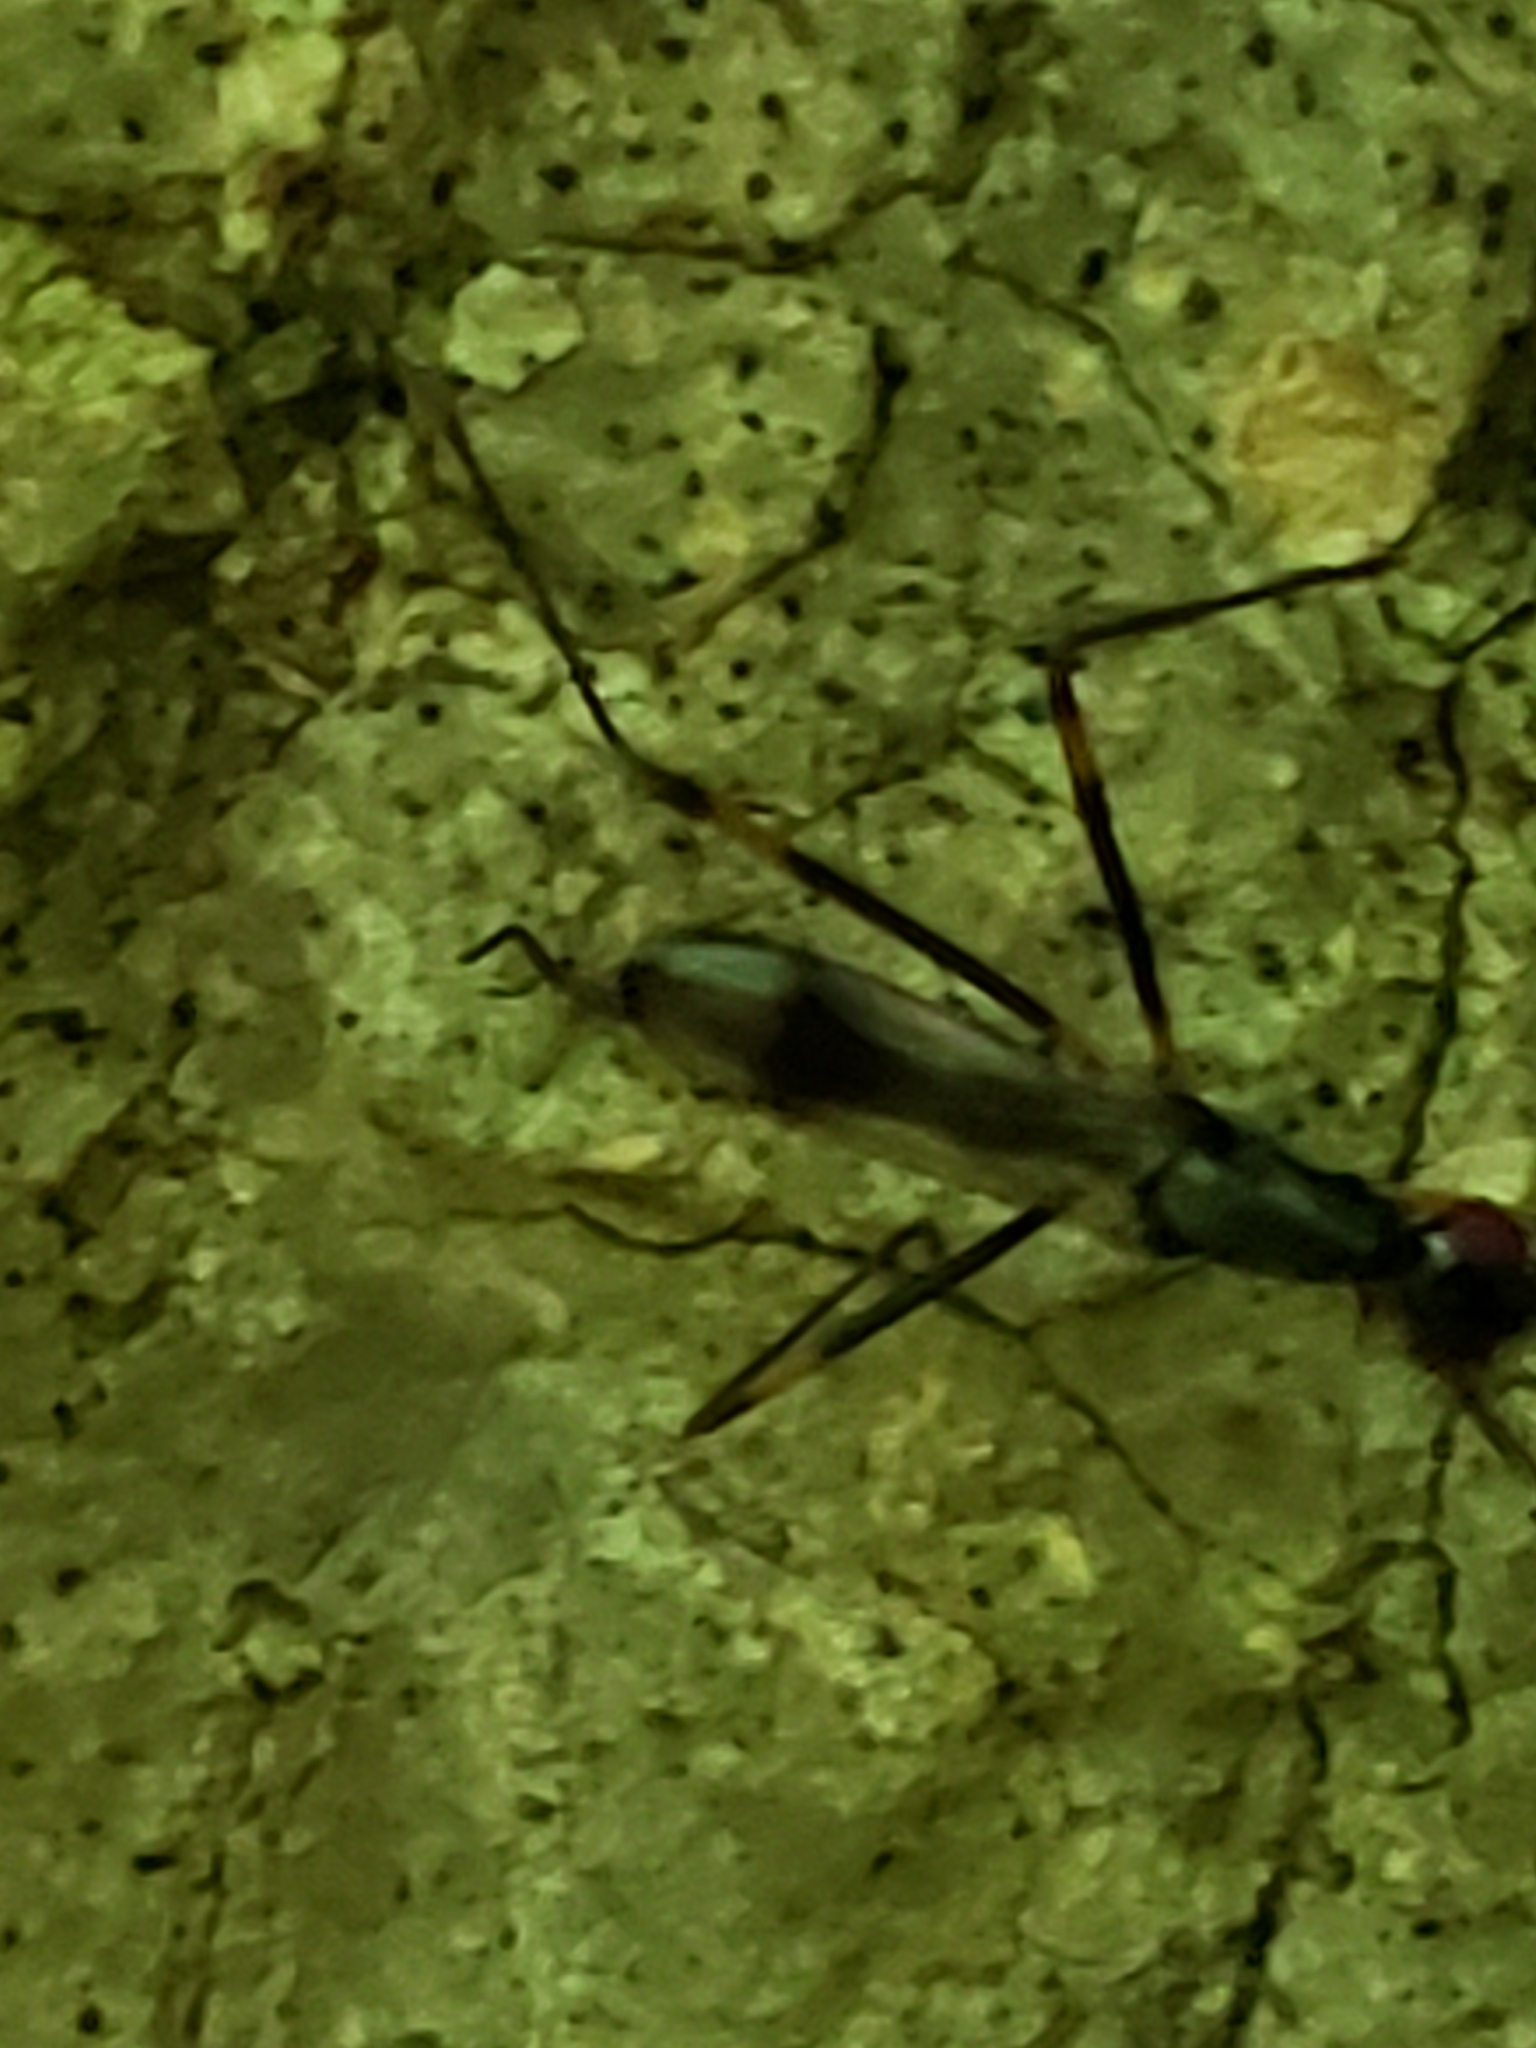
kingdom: Animalia
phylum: Arthropoda
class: Insecta
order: Diptera
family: Micropezidae
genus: Rainieria
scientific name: Rainieria antennaepes
